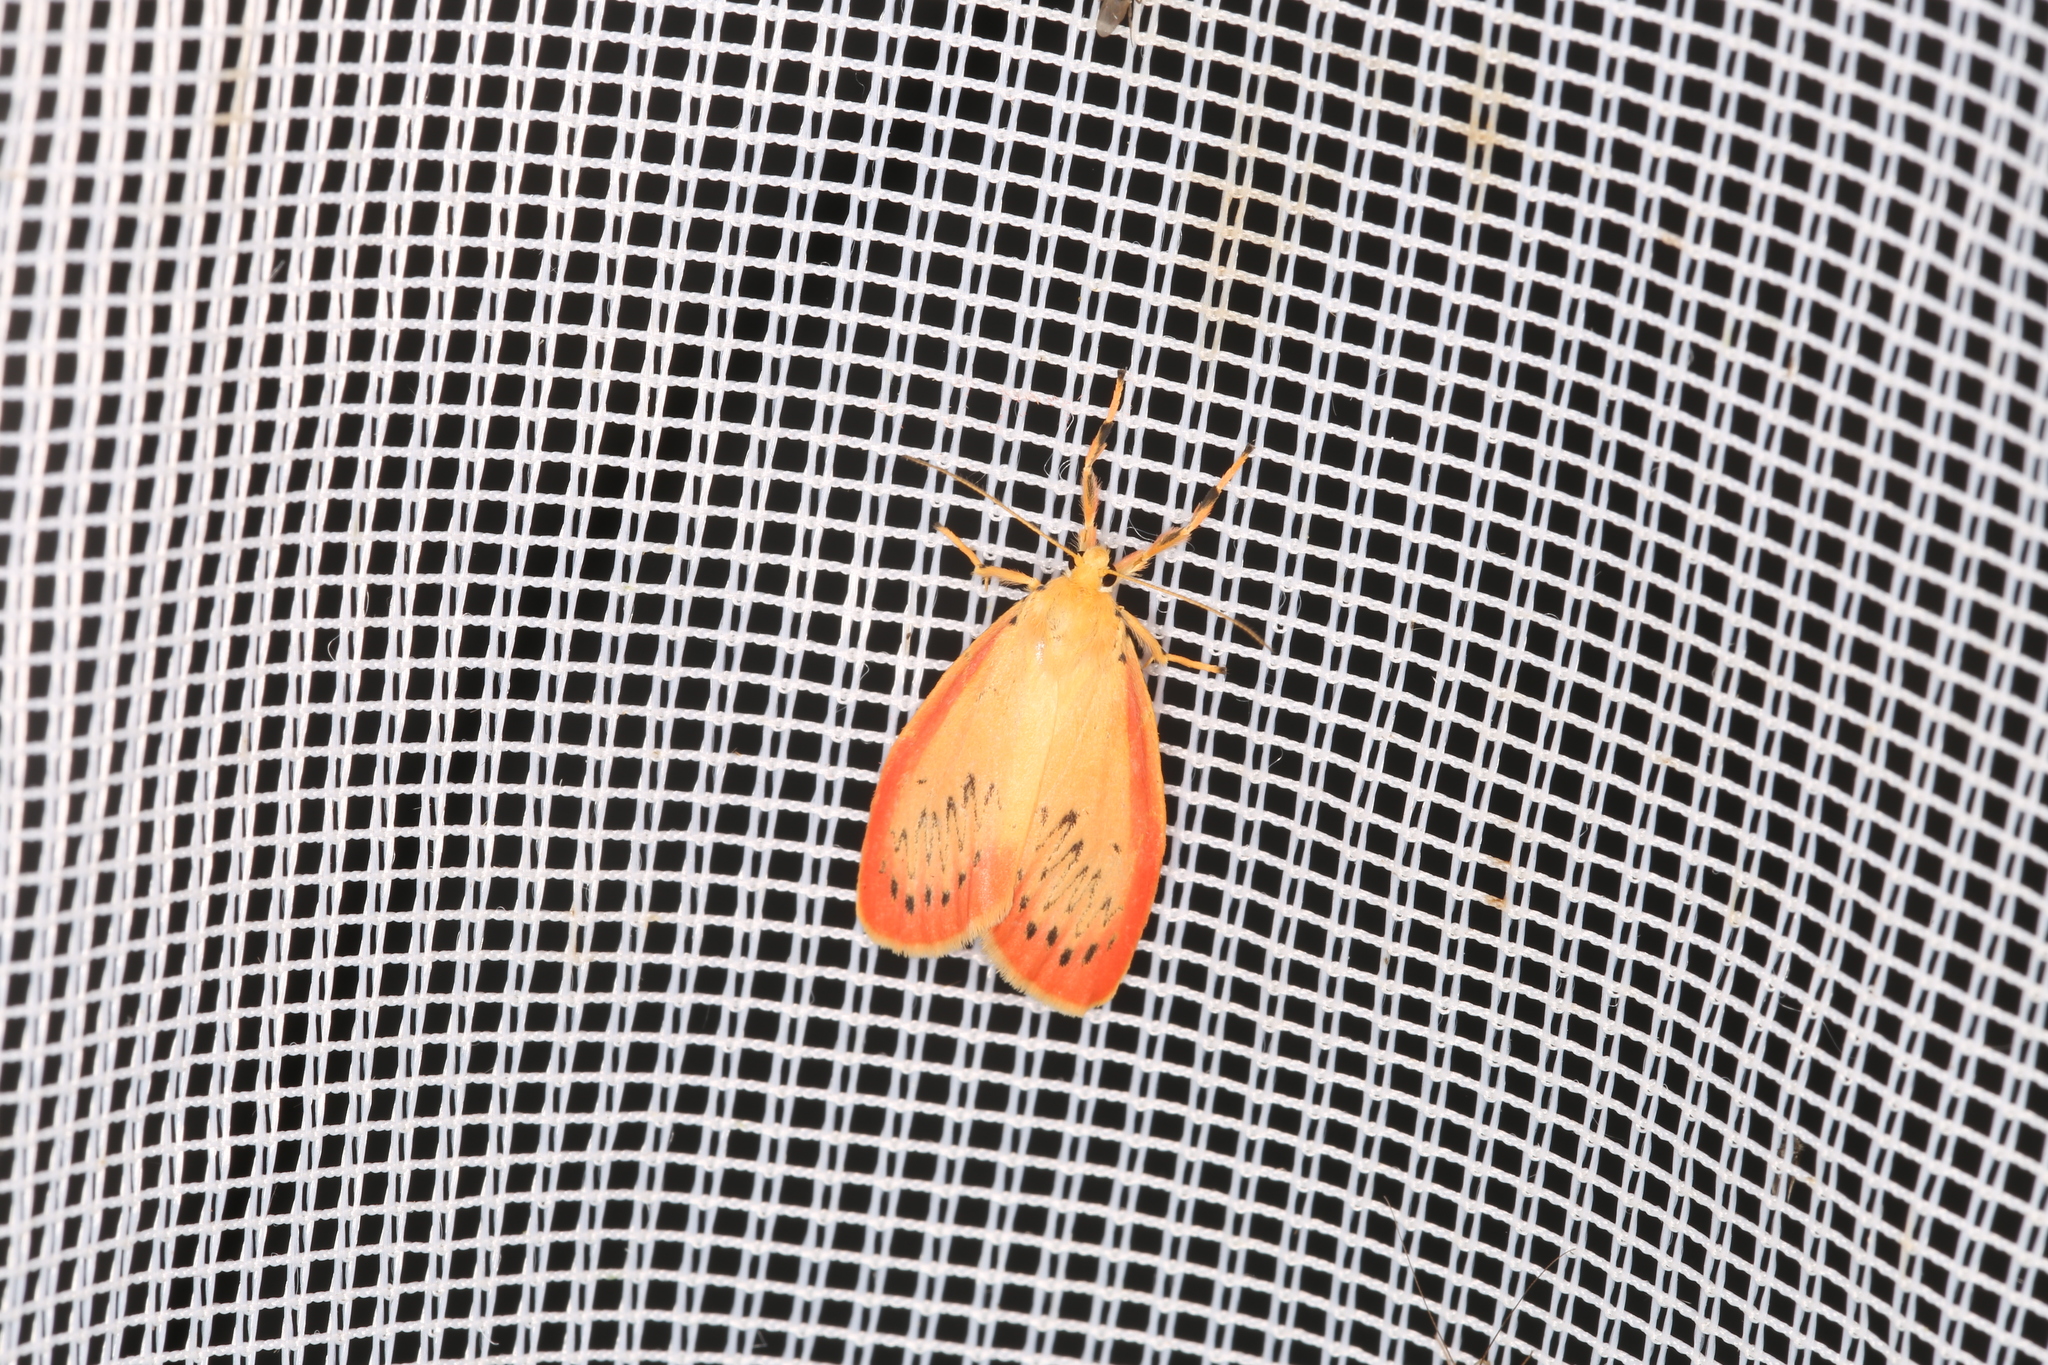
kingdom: Animalia
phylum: Arthropoda
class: Insecta
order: Lepidoptera
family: Erebidae
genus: Miltochrista
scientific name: Miltochrista miniata
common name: Rosy footman
